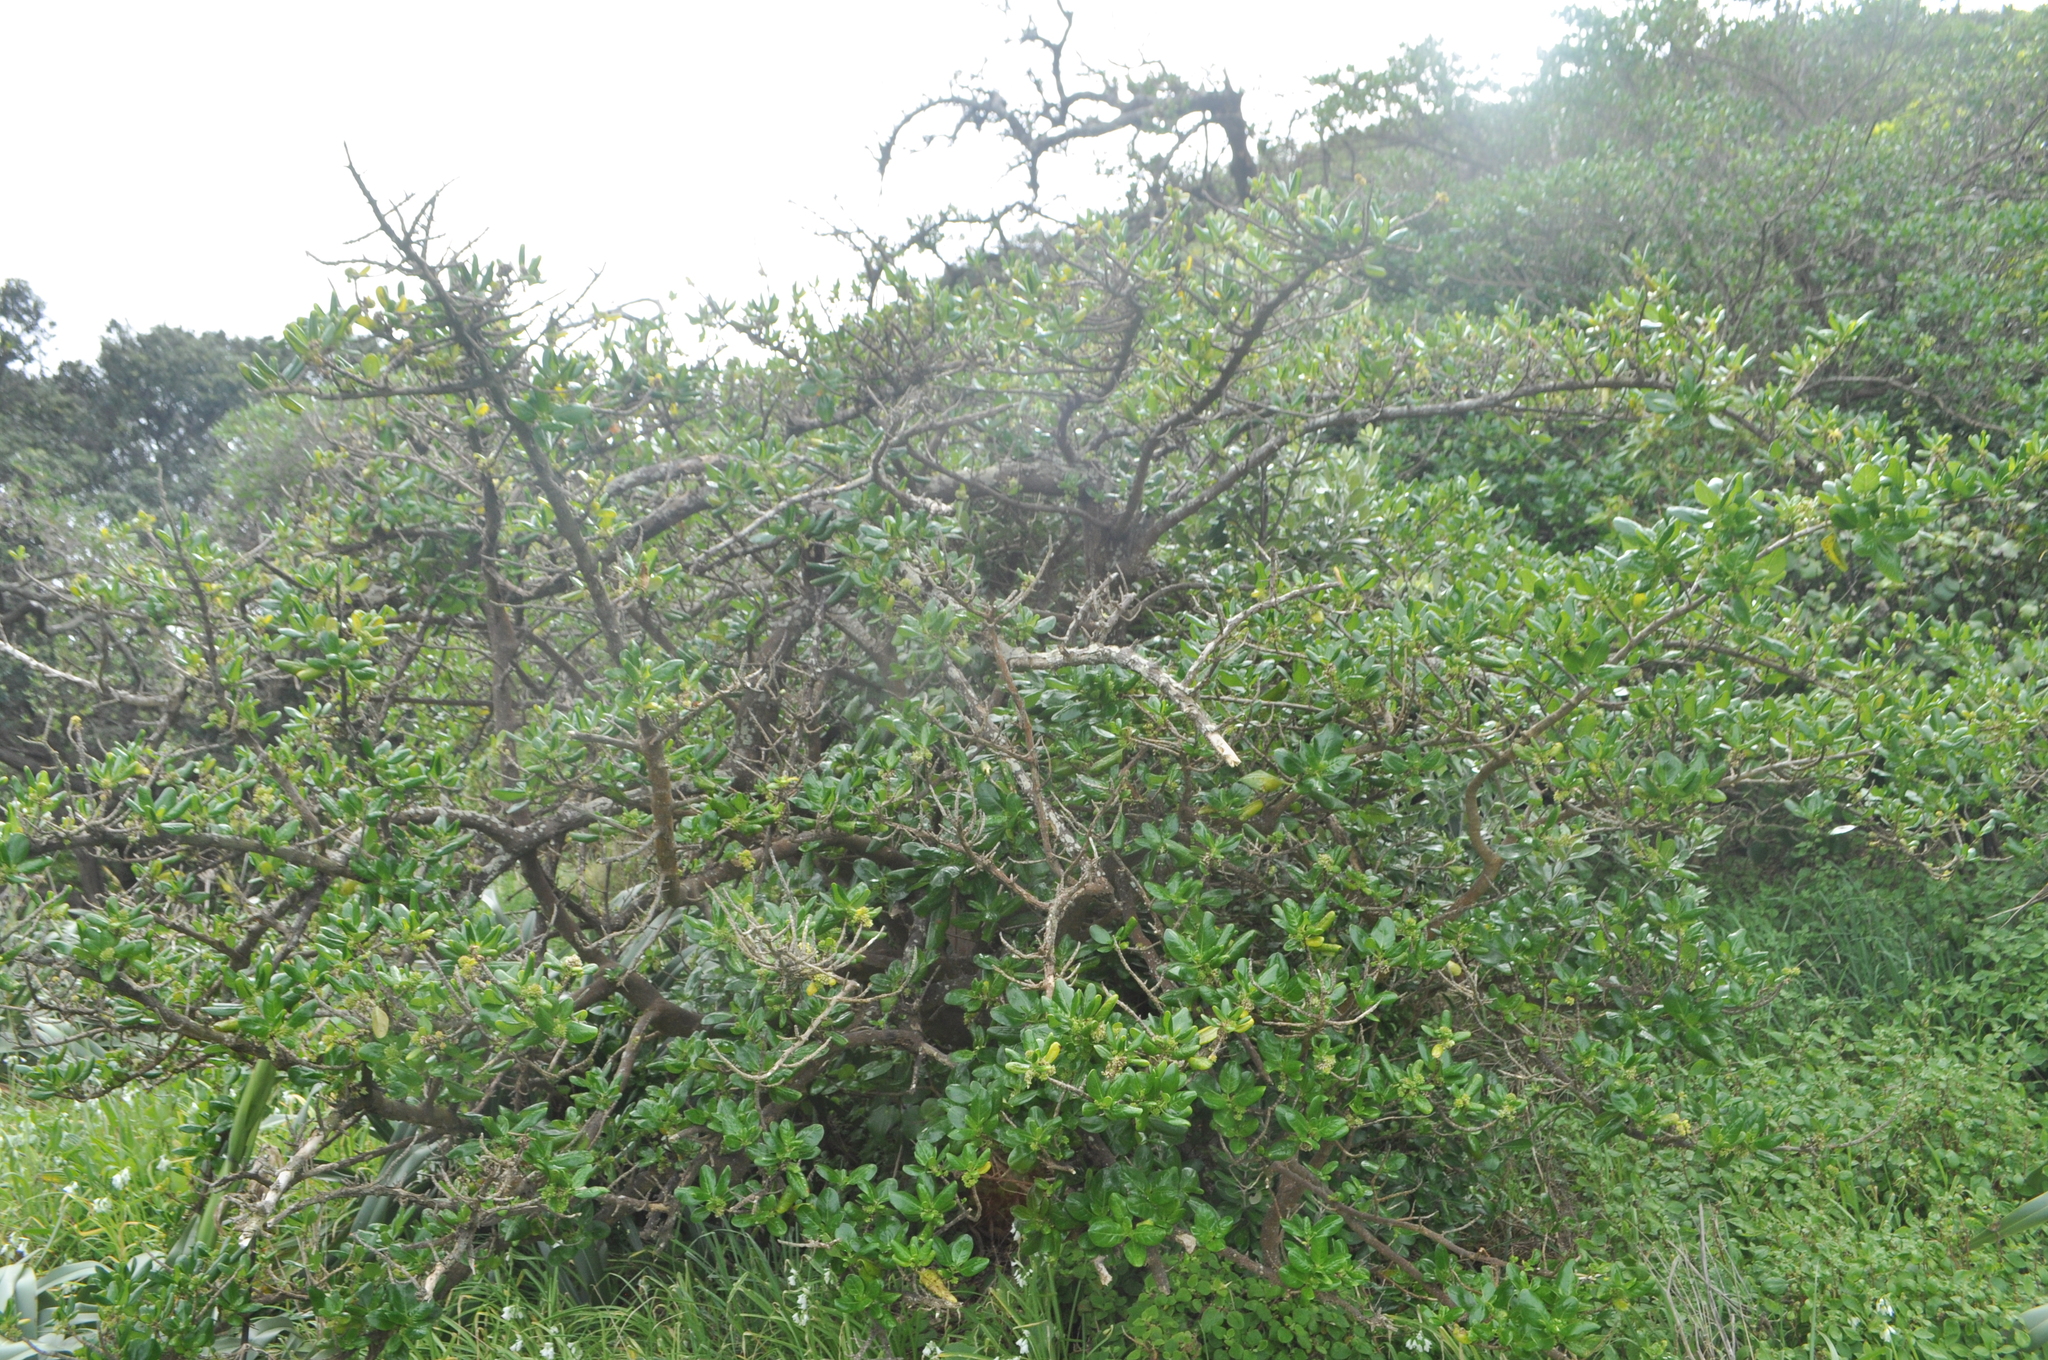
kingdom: Plantae
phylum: Tracheophyta
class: Magnoliopsida
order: Gentianales
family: Rubiaceae
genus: Coprosma
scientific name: Coprosma repens
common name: Tree bedstraw
